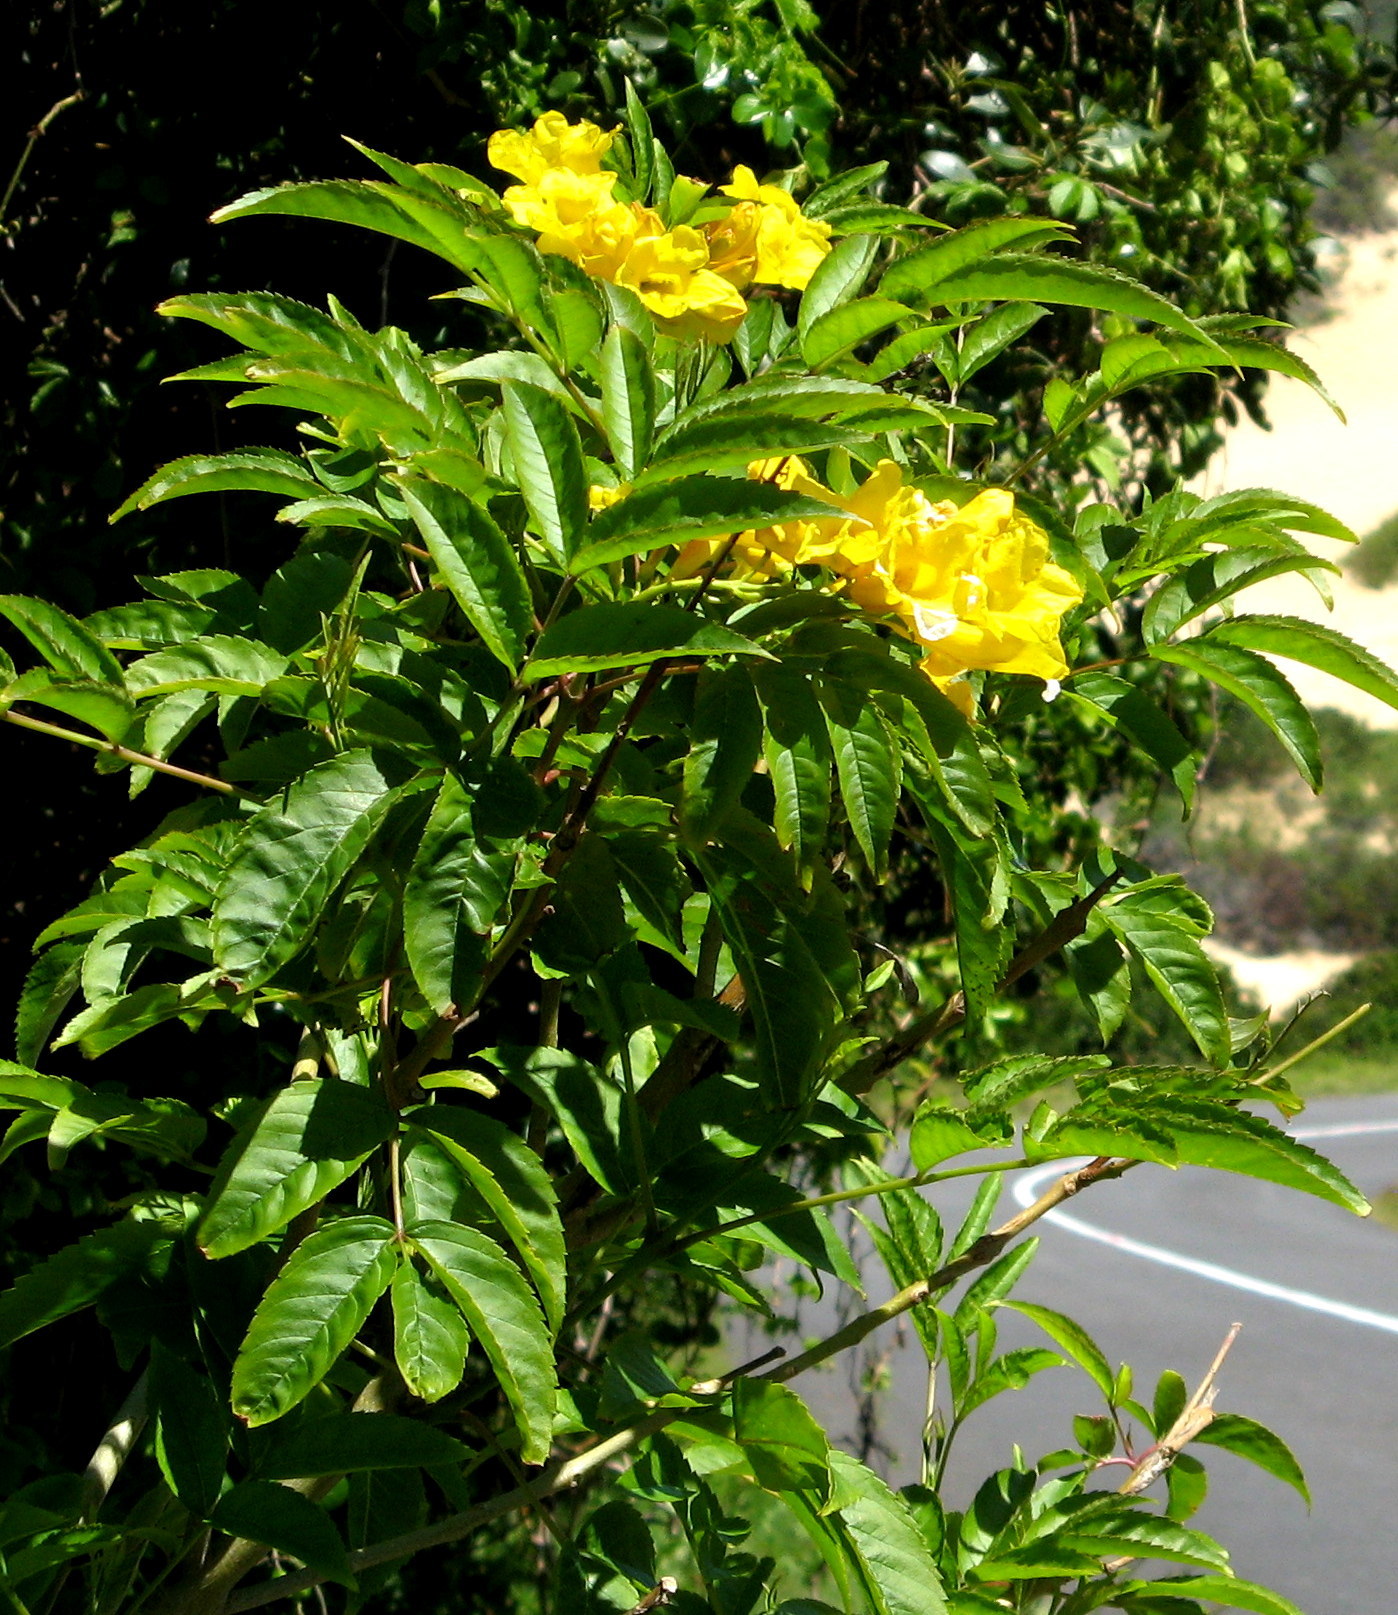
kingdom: Plantae
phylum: Tracheophyta
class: Magnoliopsida
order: Lamiales
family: Bignoniaceae
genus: Tecoma
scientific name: Tecoma stans
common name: Yellow trumpetbush
